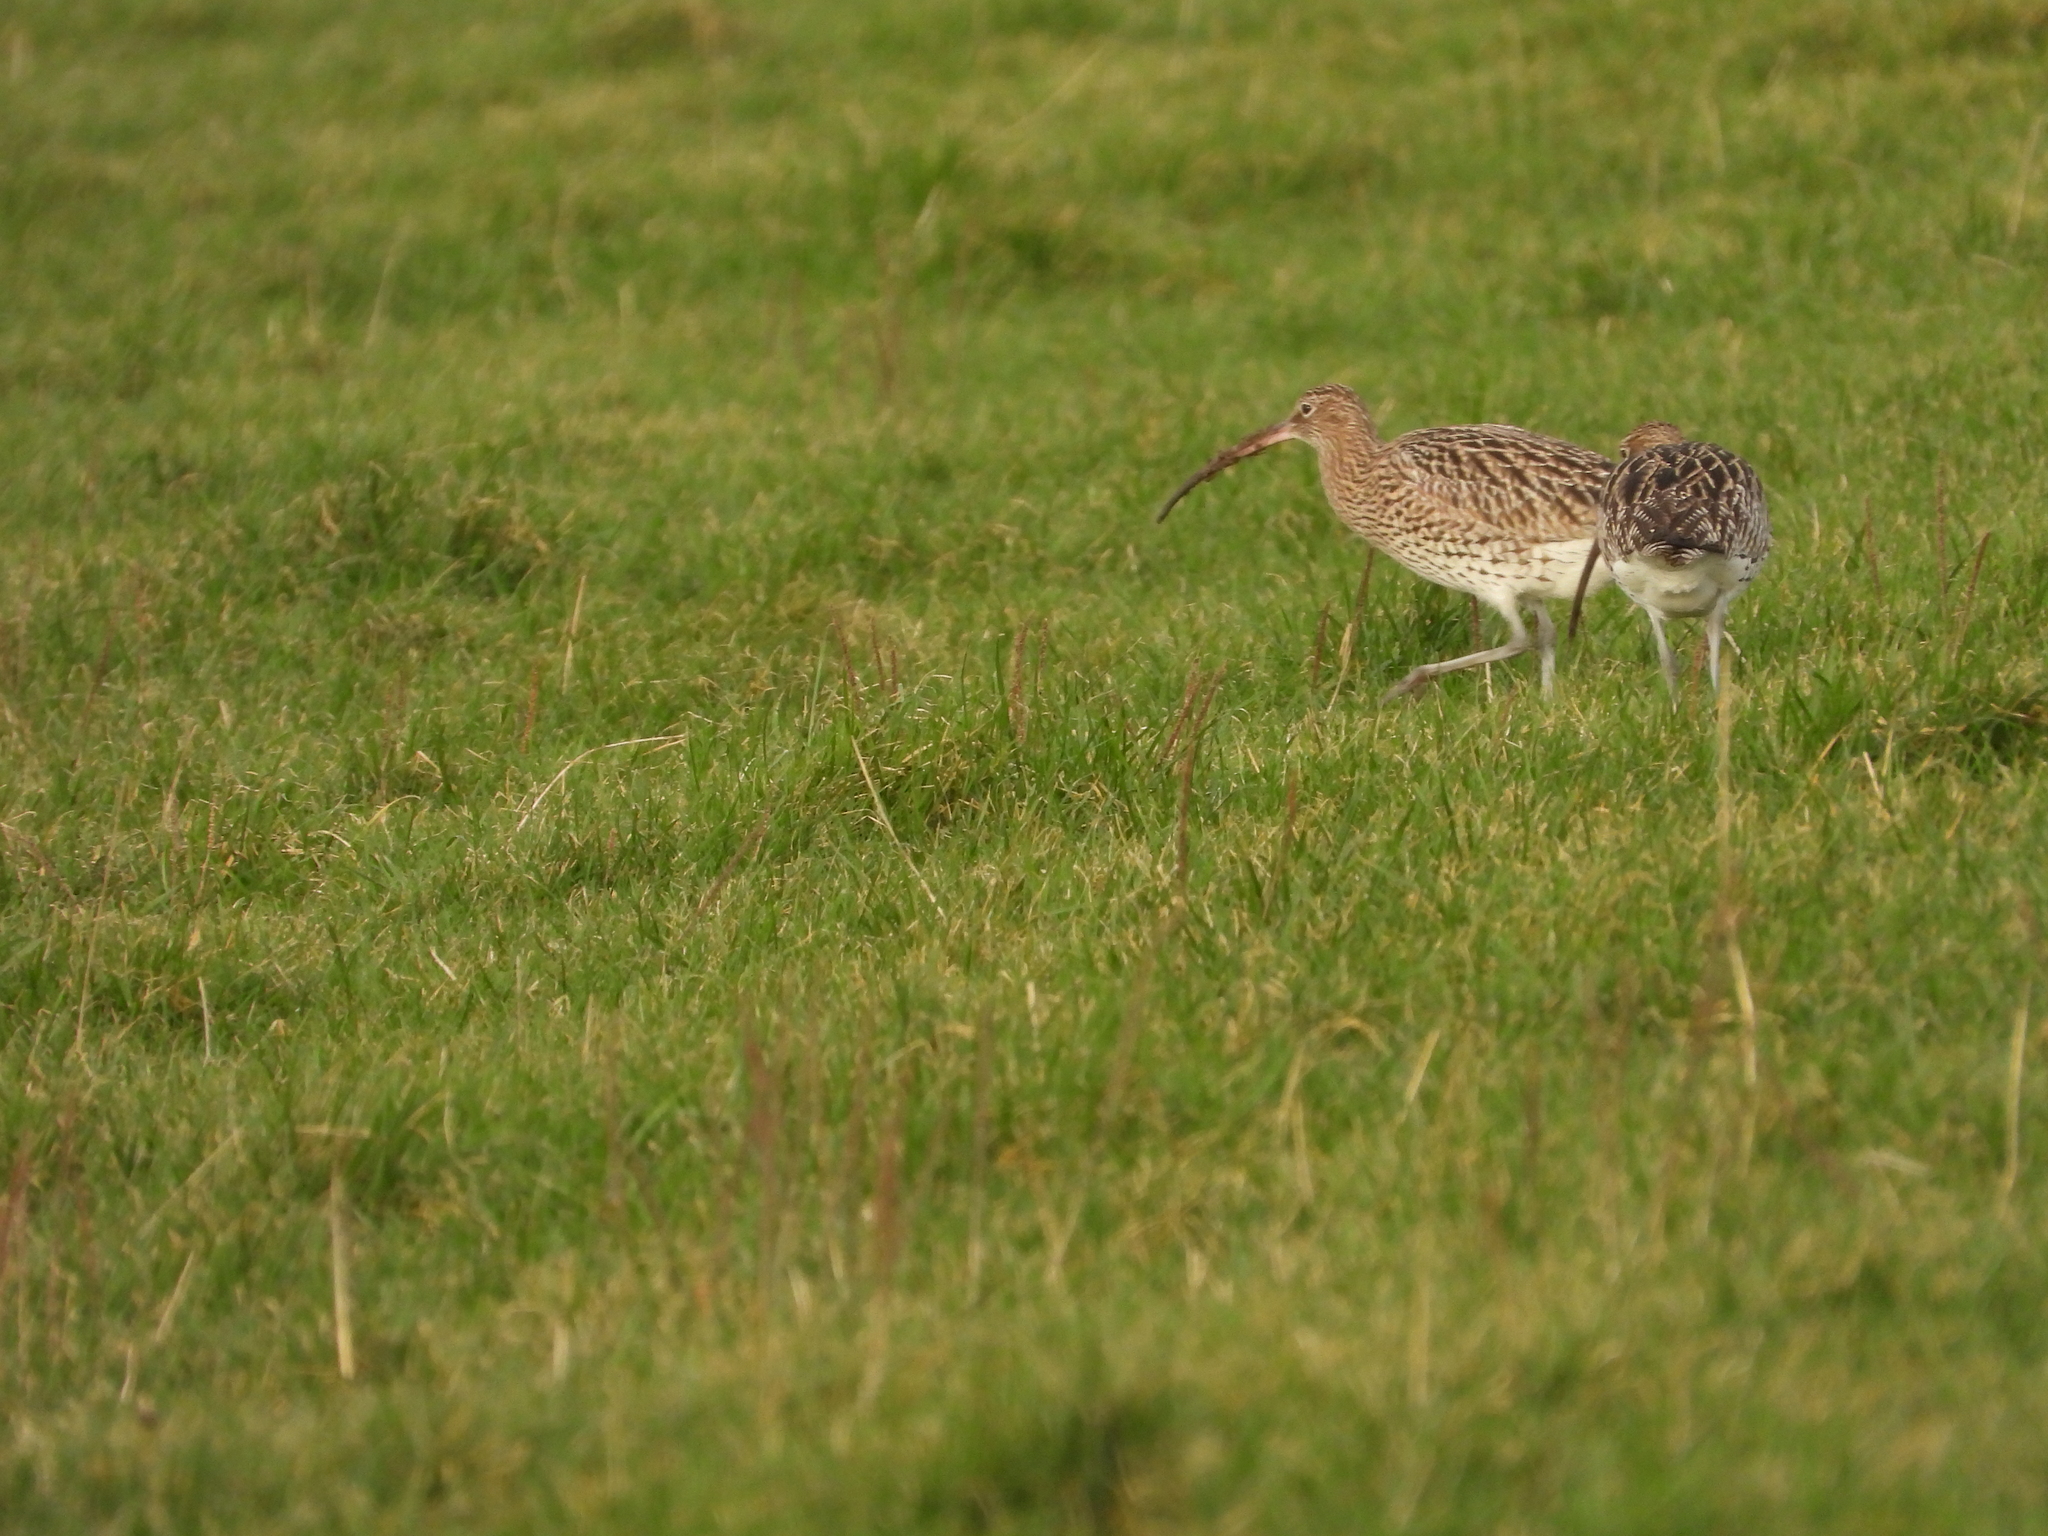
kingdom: Animalia
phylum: Chordata
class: Aves
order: Charadriiformes
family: Scolopacidae
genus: Numenius
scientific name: Numenius arquata
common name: Eurasian curlew
